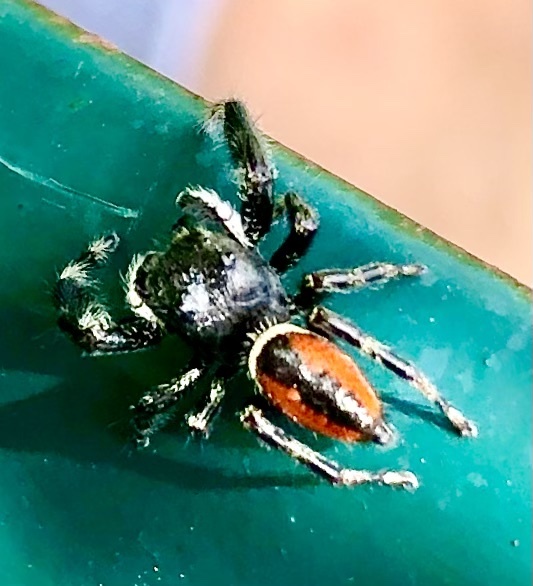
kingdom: Animalia
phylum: Arthropoda
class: Arachnida
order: Araneae
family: Salticidae
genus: Phidippus
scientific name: Phidippus clarus
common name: Brilliant jumping spider
